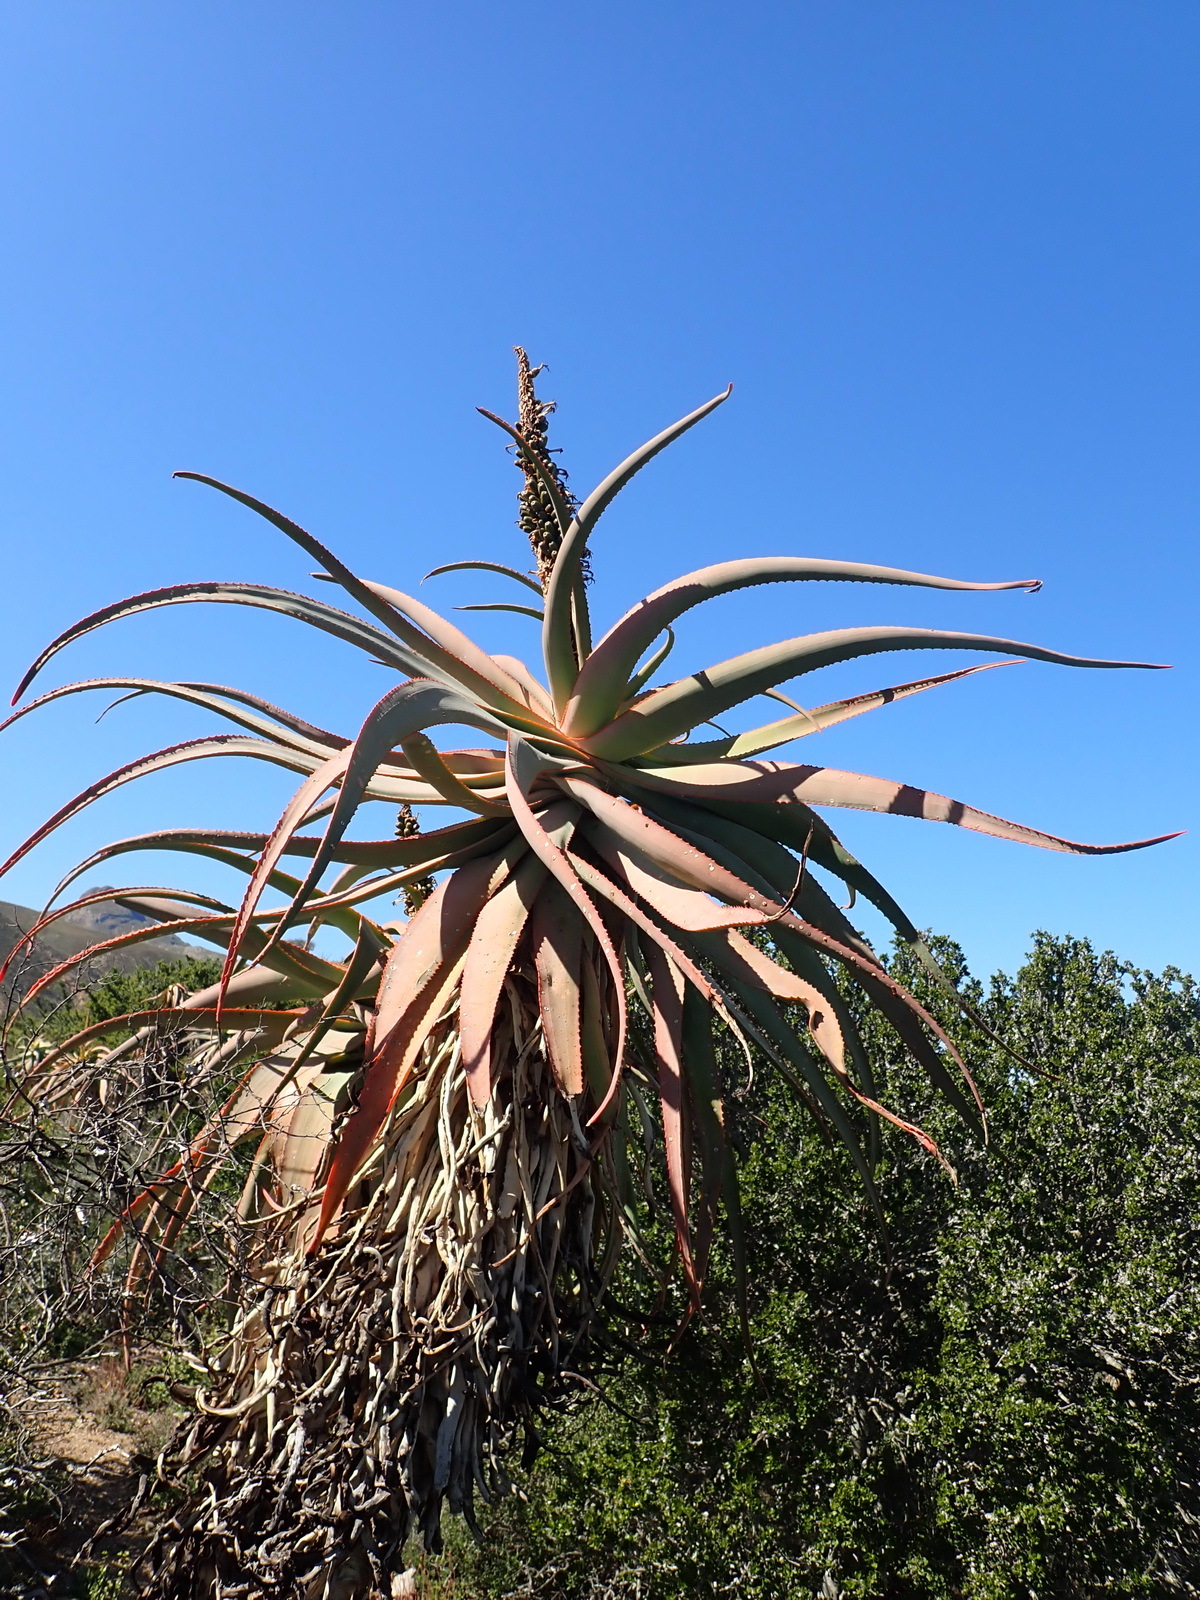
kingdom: Plantae
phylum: Tracheophyta
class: Liliopsida
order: Asparagales
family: Asphodelaceae
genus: Aloe
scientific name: Aloe speciosa
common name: Beautiful aloe
